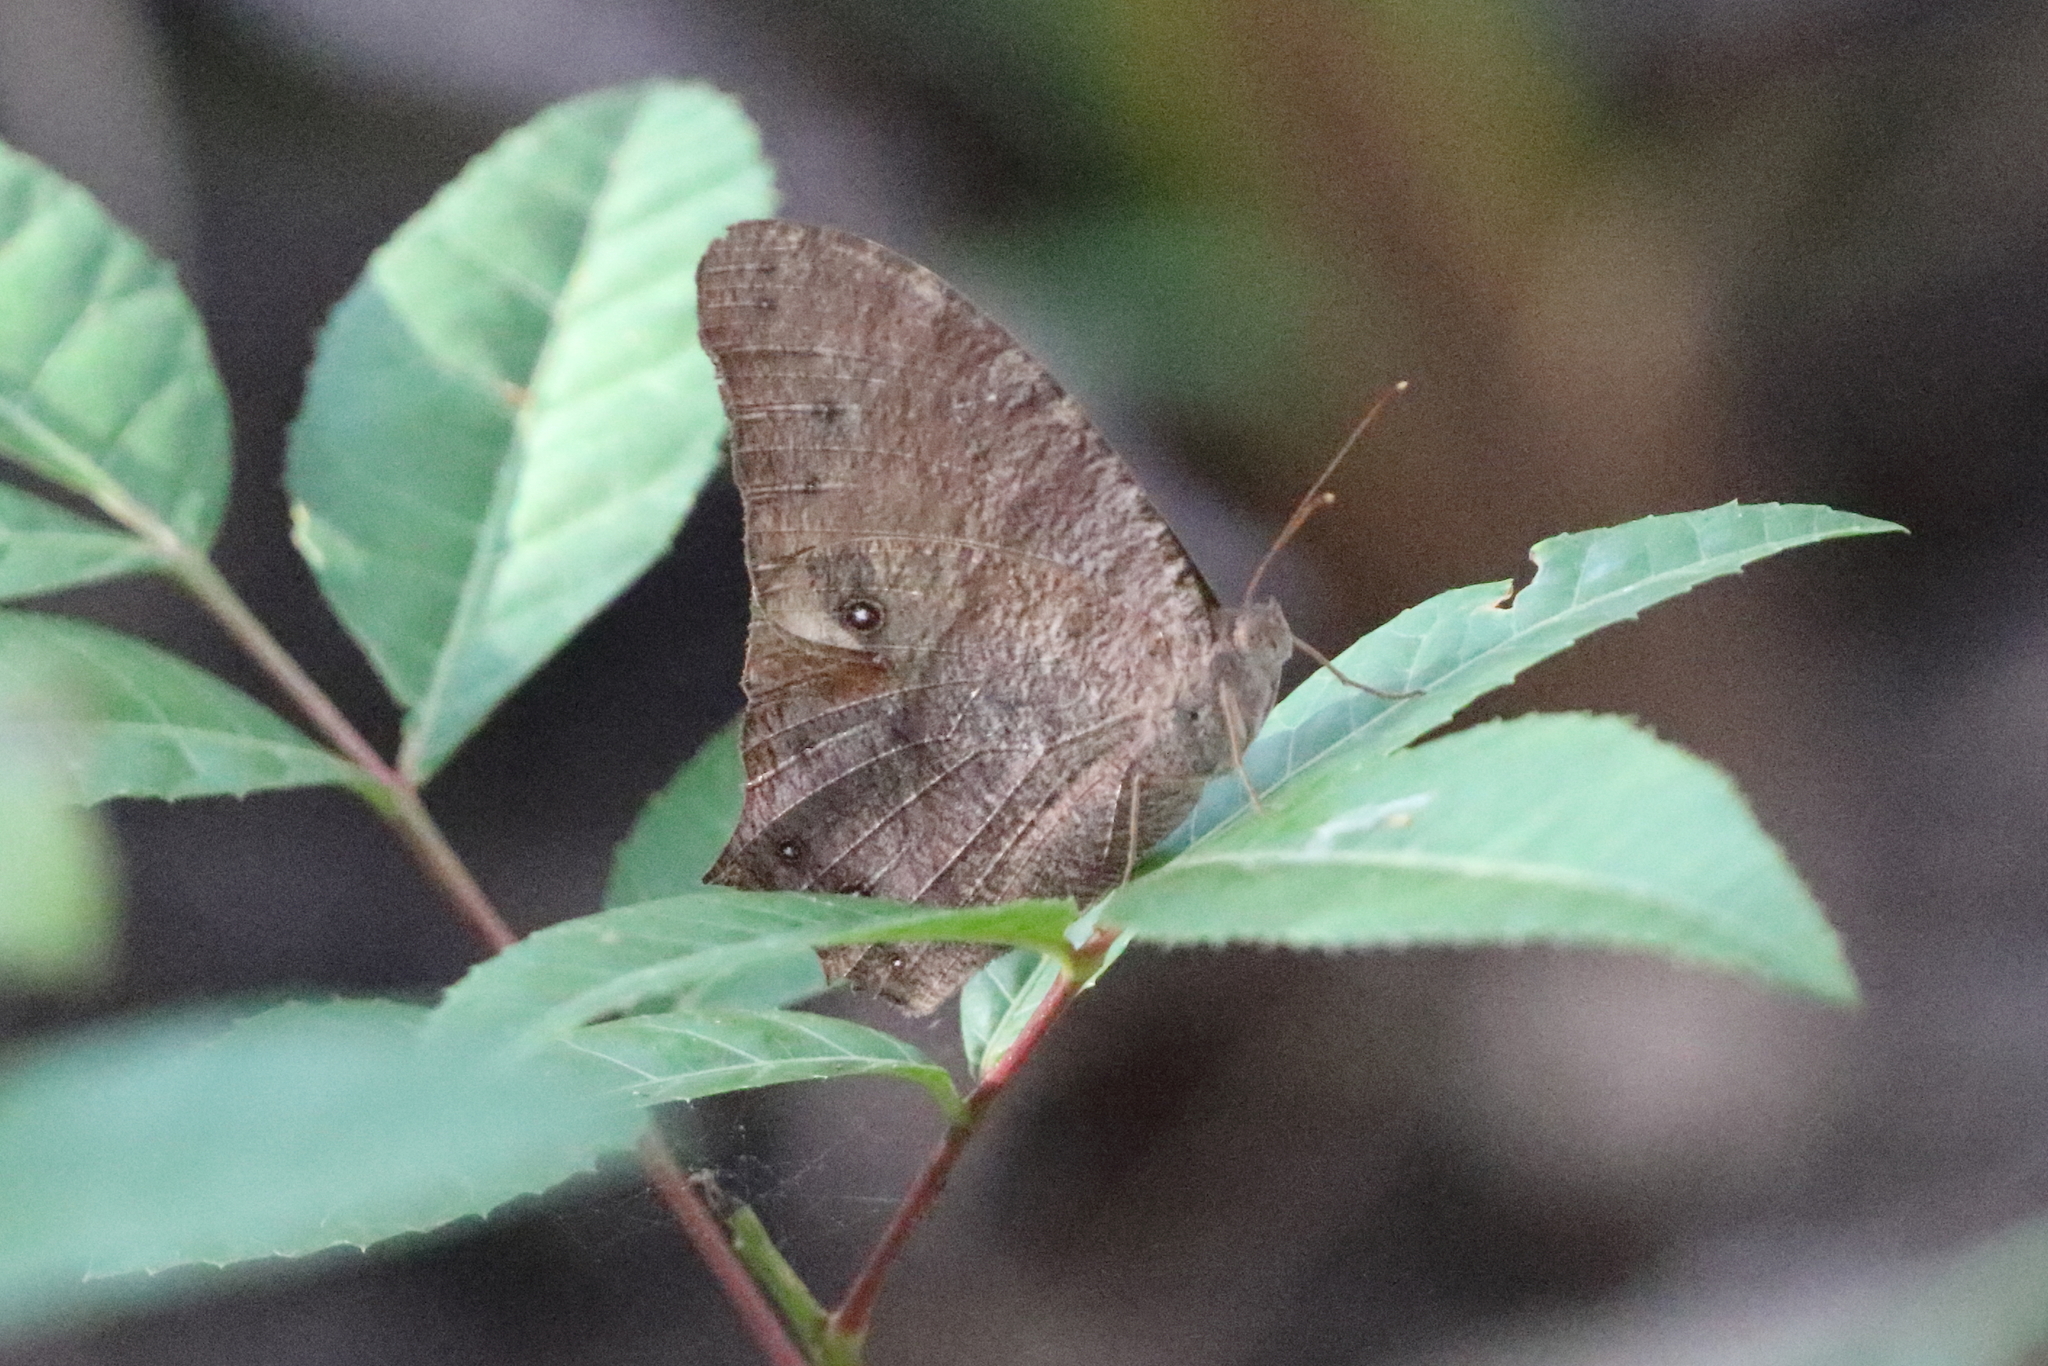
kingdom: Animalia
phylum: Arthropoda
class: Insecta
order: Lepidoptera
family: Nymphalidae
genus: Melanitis
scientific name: Melanitis leda
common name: Twilight brown
